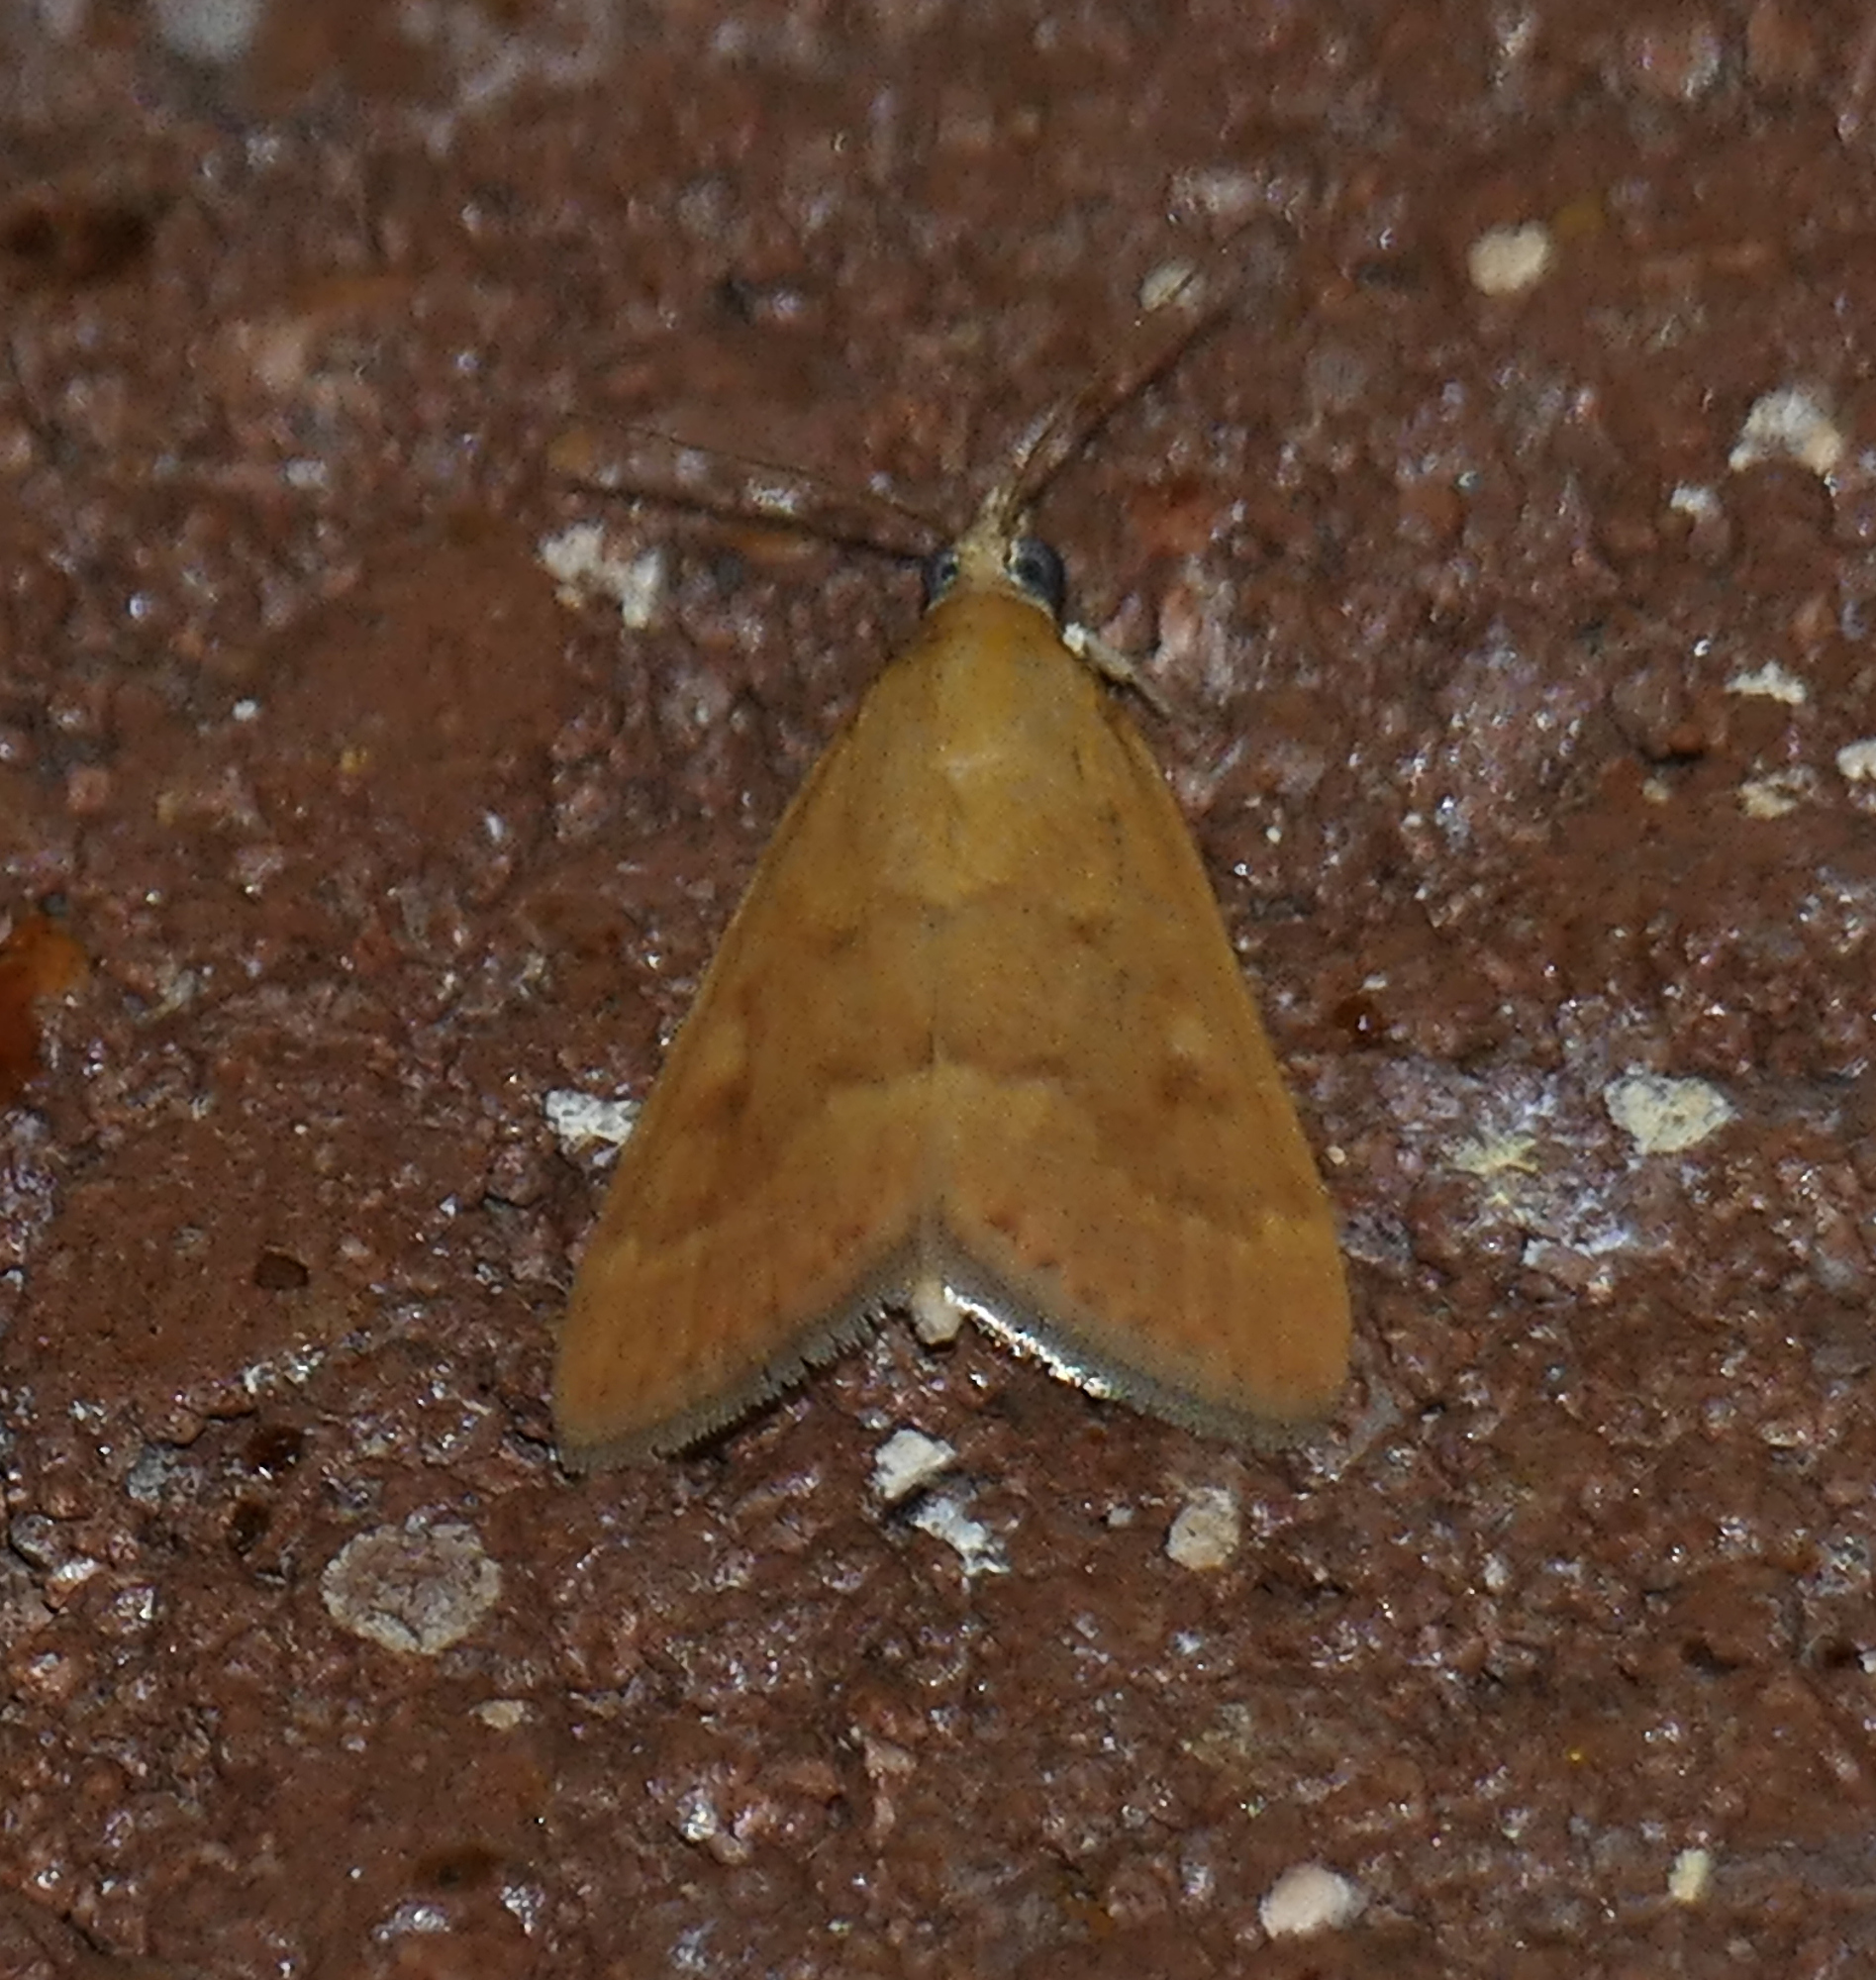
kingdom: Animalia
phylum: Arthropoda
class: Insecta
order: Lepidoptera
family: Crambidae
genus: Achyra
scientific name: Achyra rantalis
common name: Garden webworm
